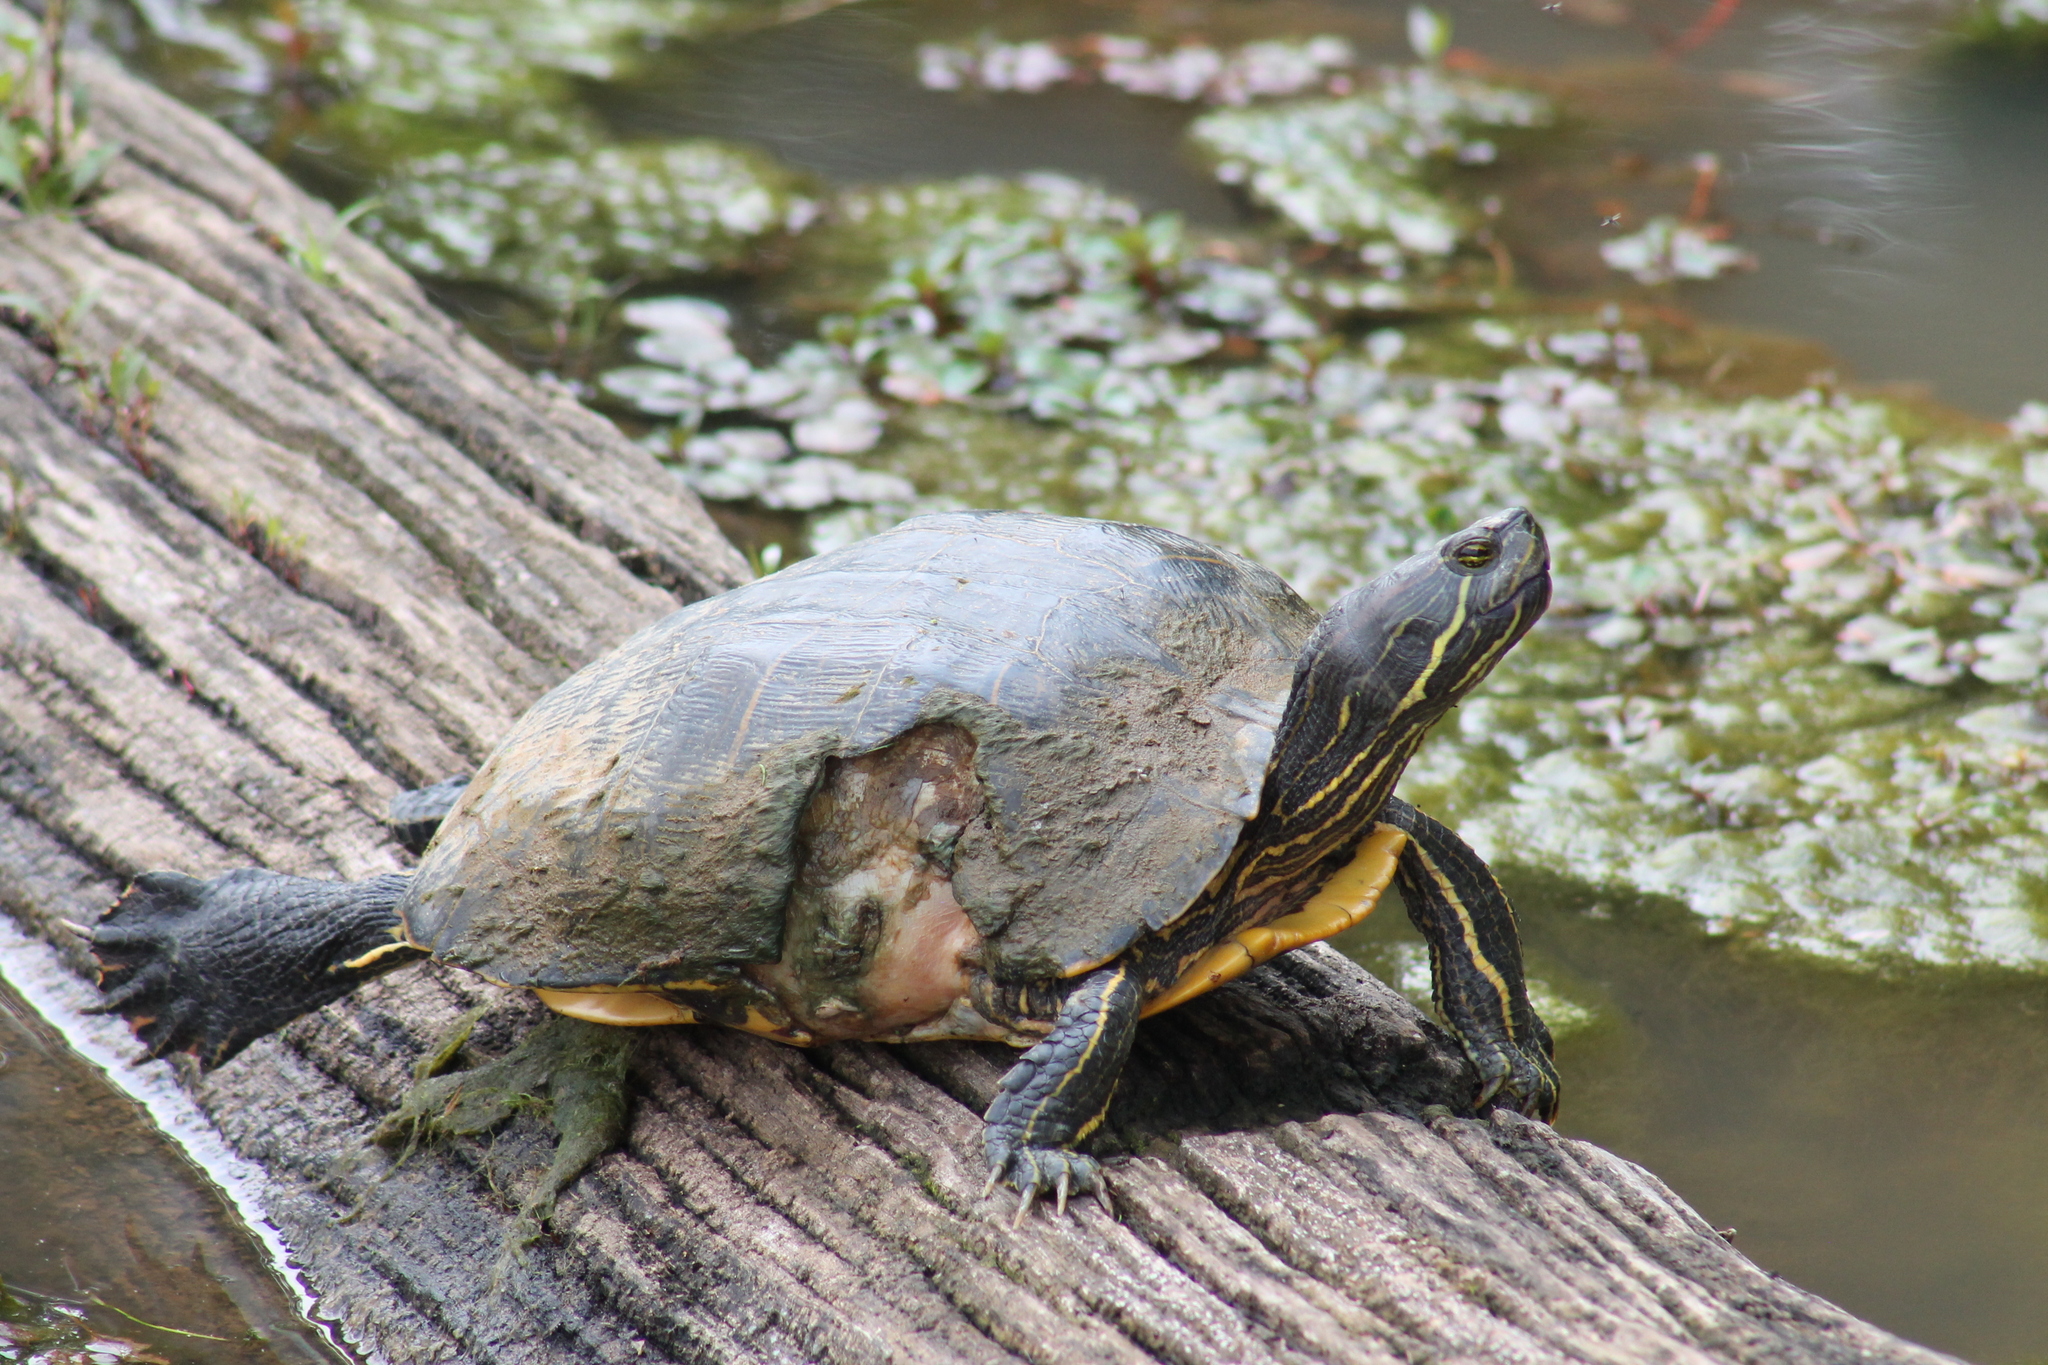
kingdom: Animalia
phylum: Chordata
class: Testudines
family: Emydidae
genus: Trachemys
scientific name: Trachemys scripta
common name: Slider
